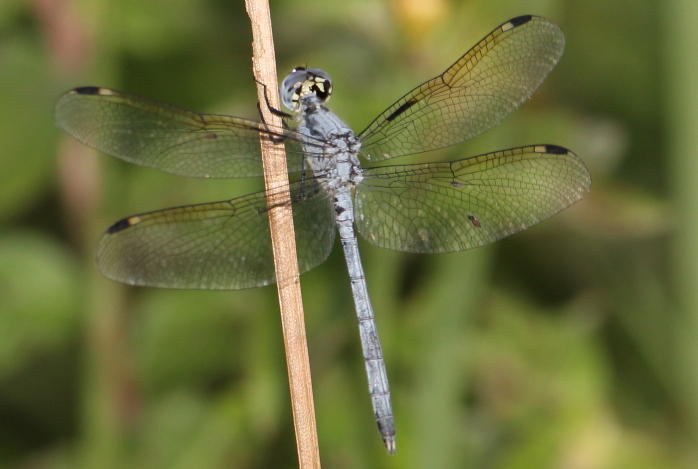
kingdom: Animalia
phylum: Arthropoda
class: Insecta
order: Odonata
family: Libellulidae
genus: Hemistigma
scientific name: Hemistigma albipunctum
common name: African pied-spot
